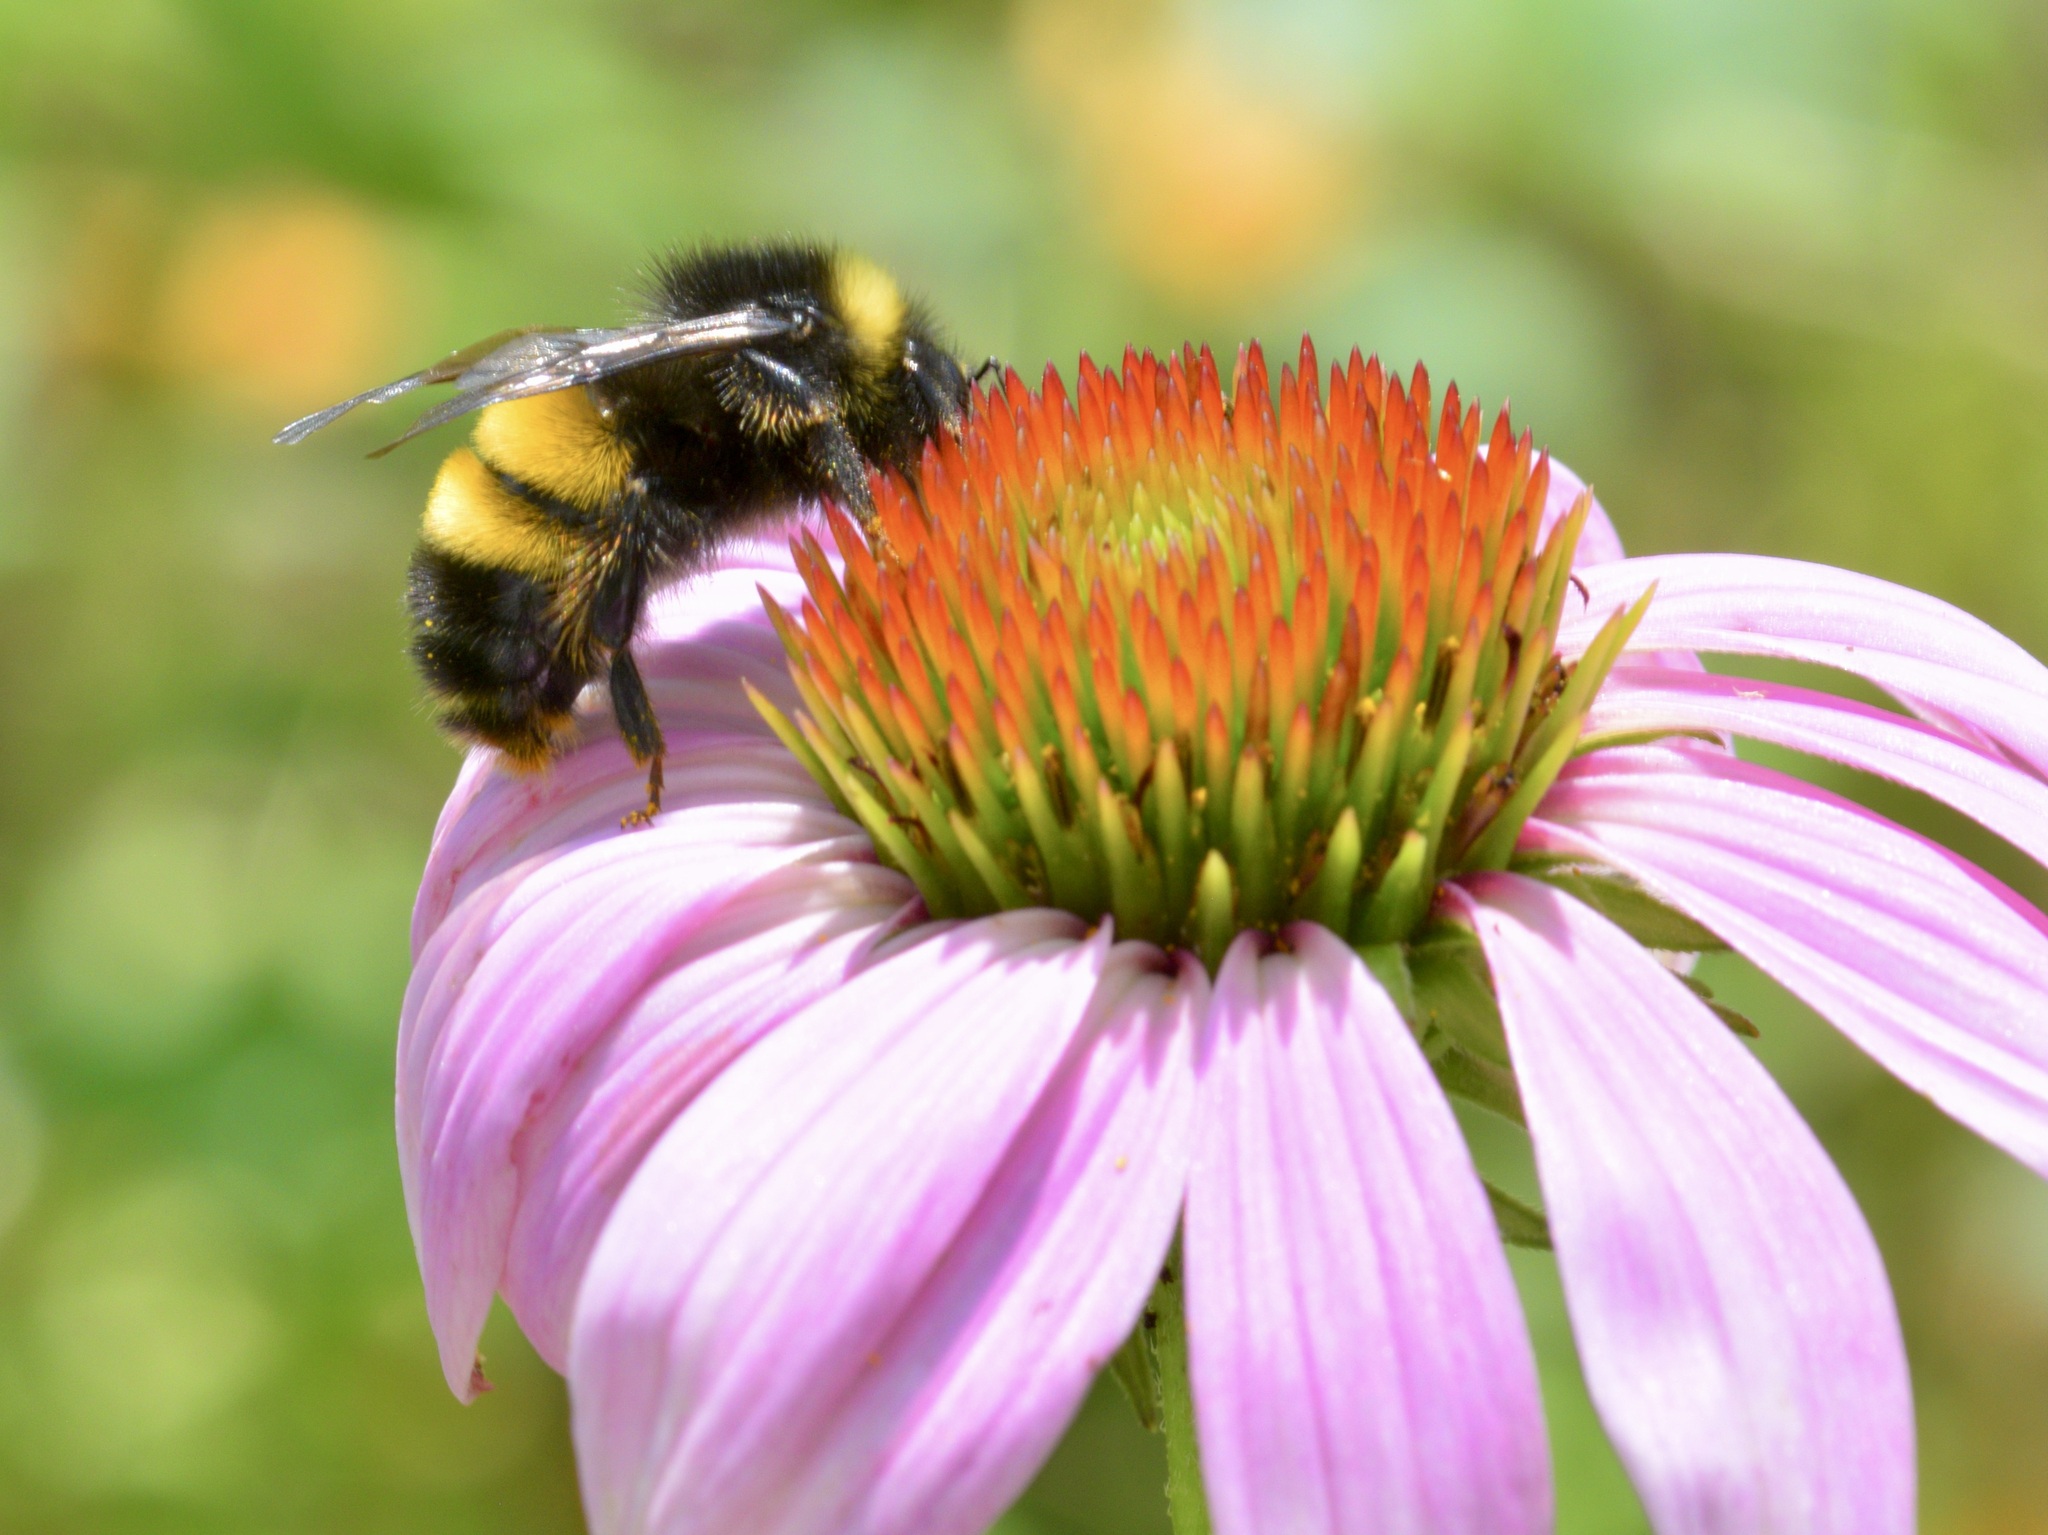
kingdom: Animalia
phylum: Arthropoda
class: Insecta
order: Hymenoptera
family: Apidae
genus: Bombus
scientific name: Bombus terricola
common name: Yellow-banded bumble bee
